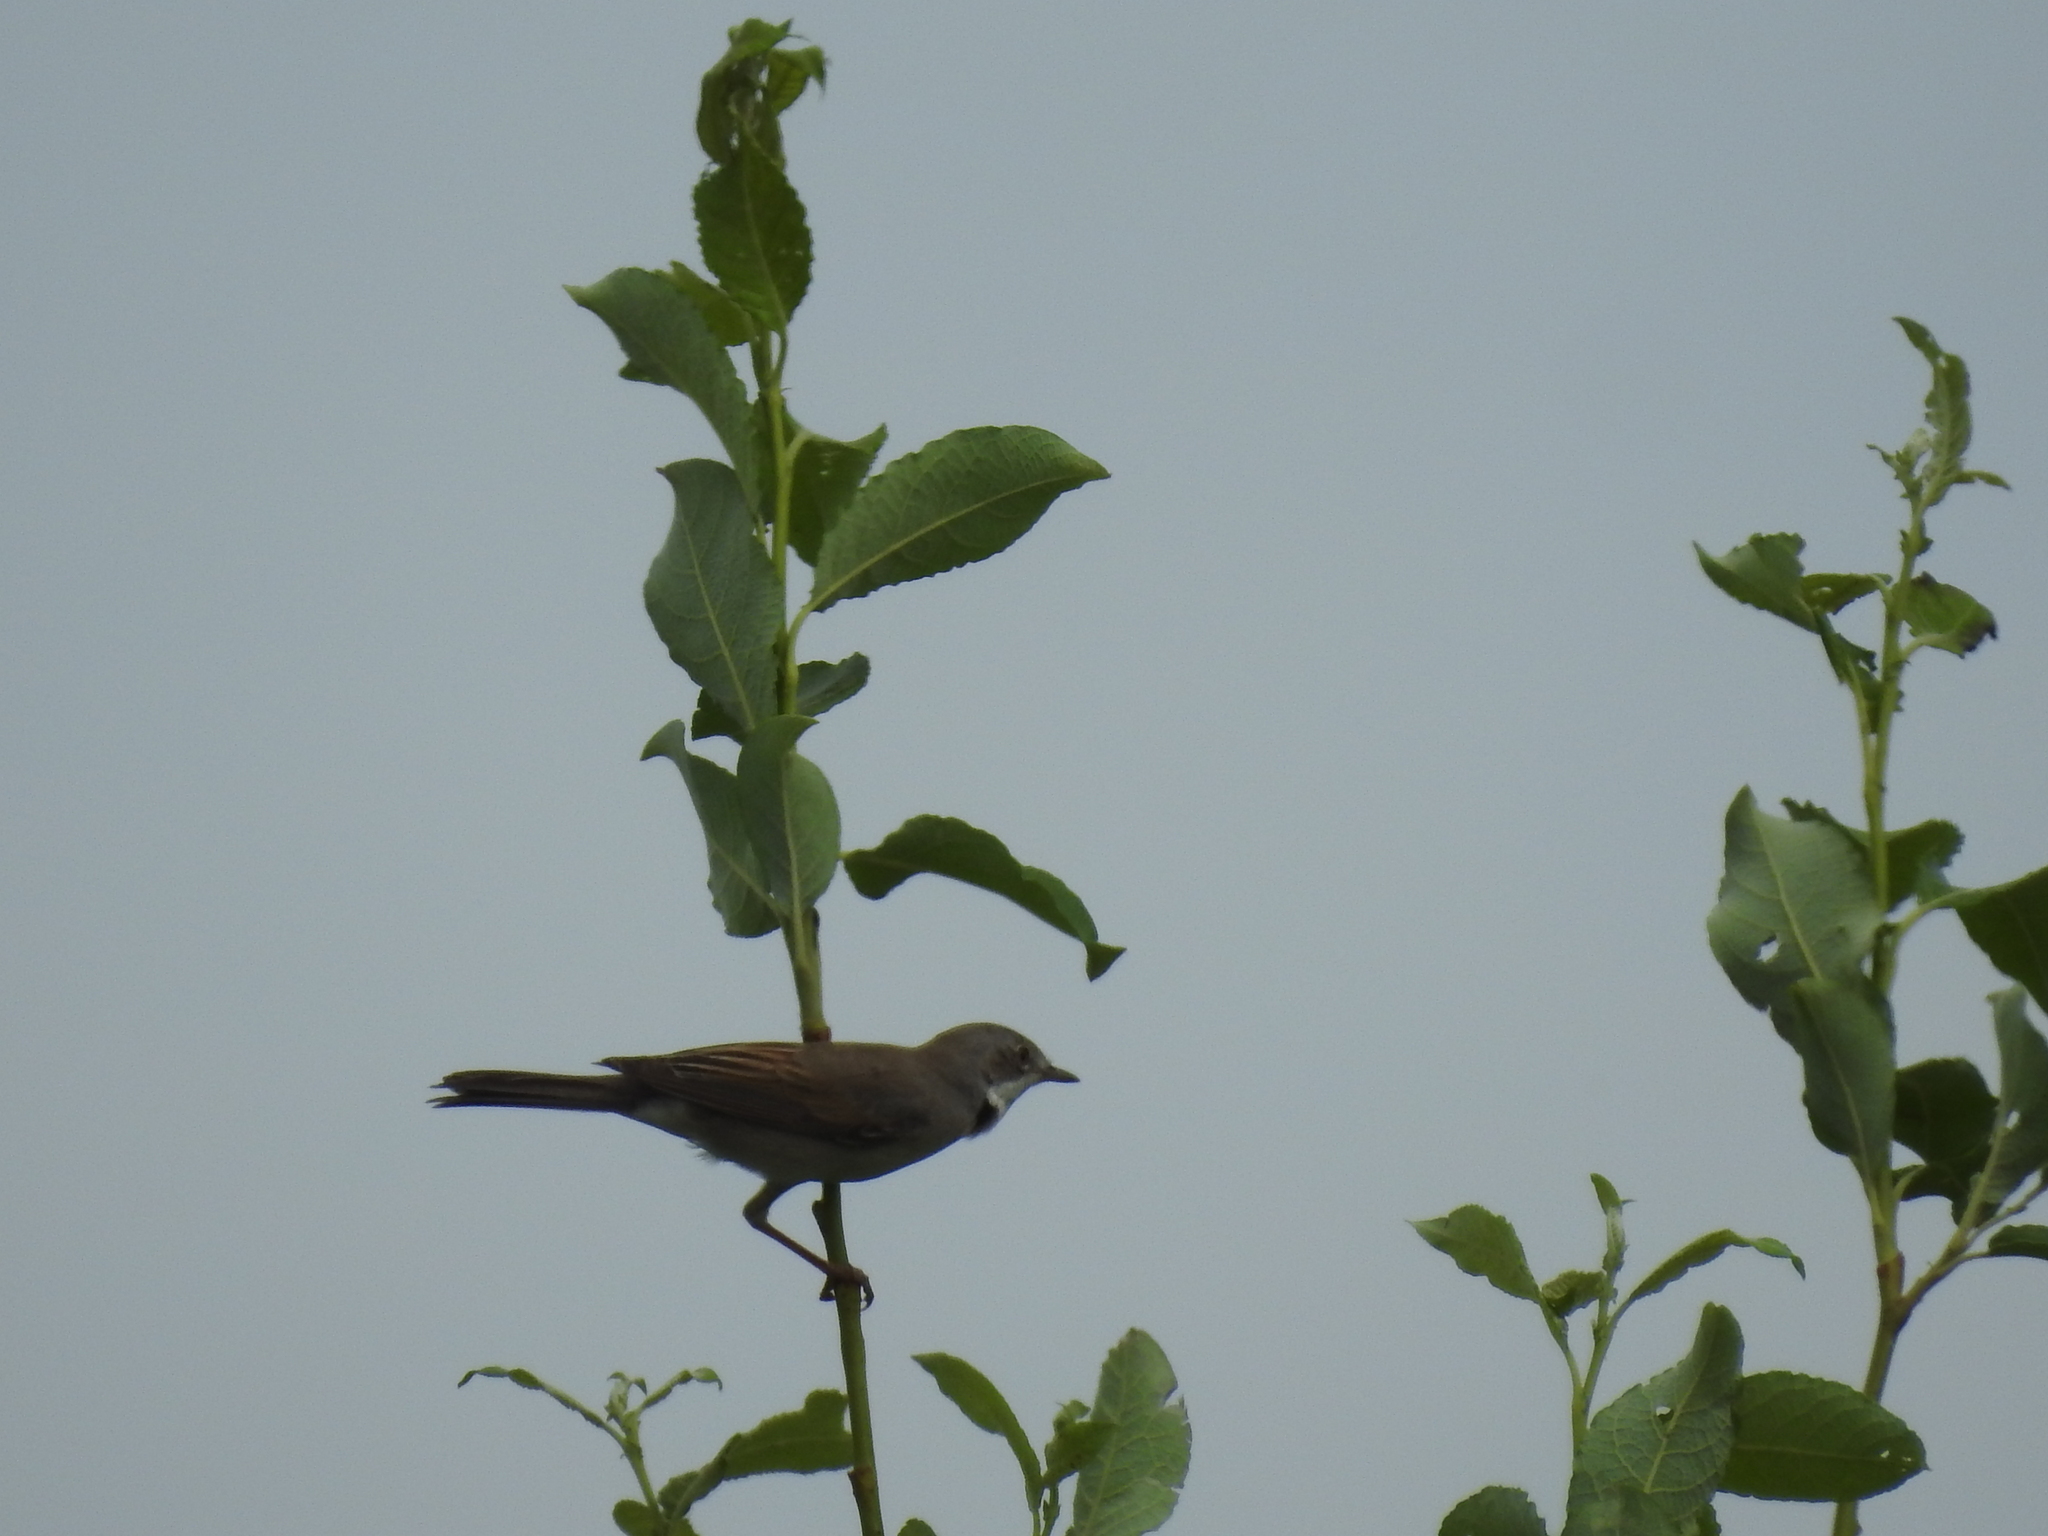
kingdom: Animalia
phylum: Chordata
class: Aves
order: Passeriformes
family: Sylviidae
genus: Sylvia
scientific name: Sylvia communis
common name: Common whitethroat
